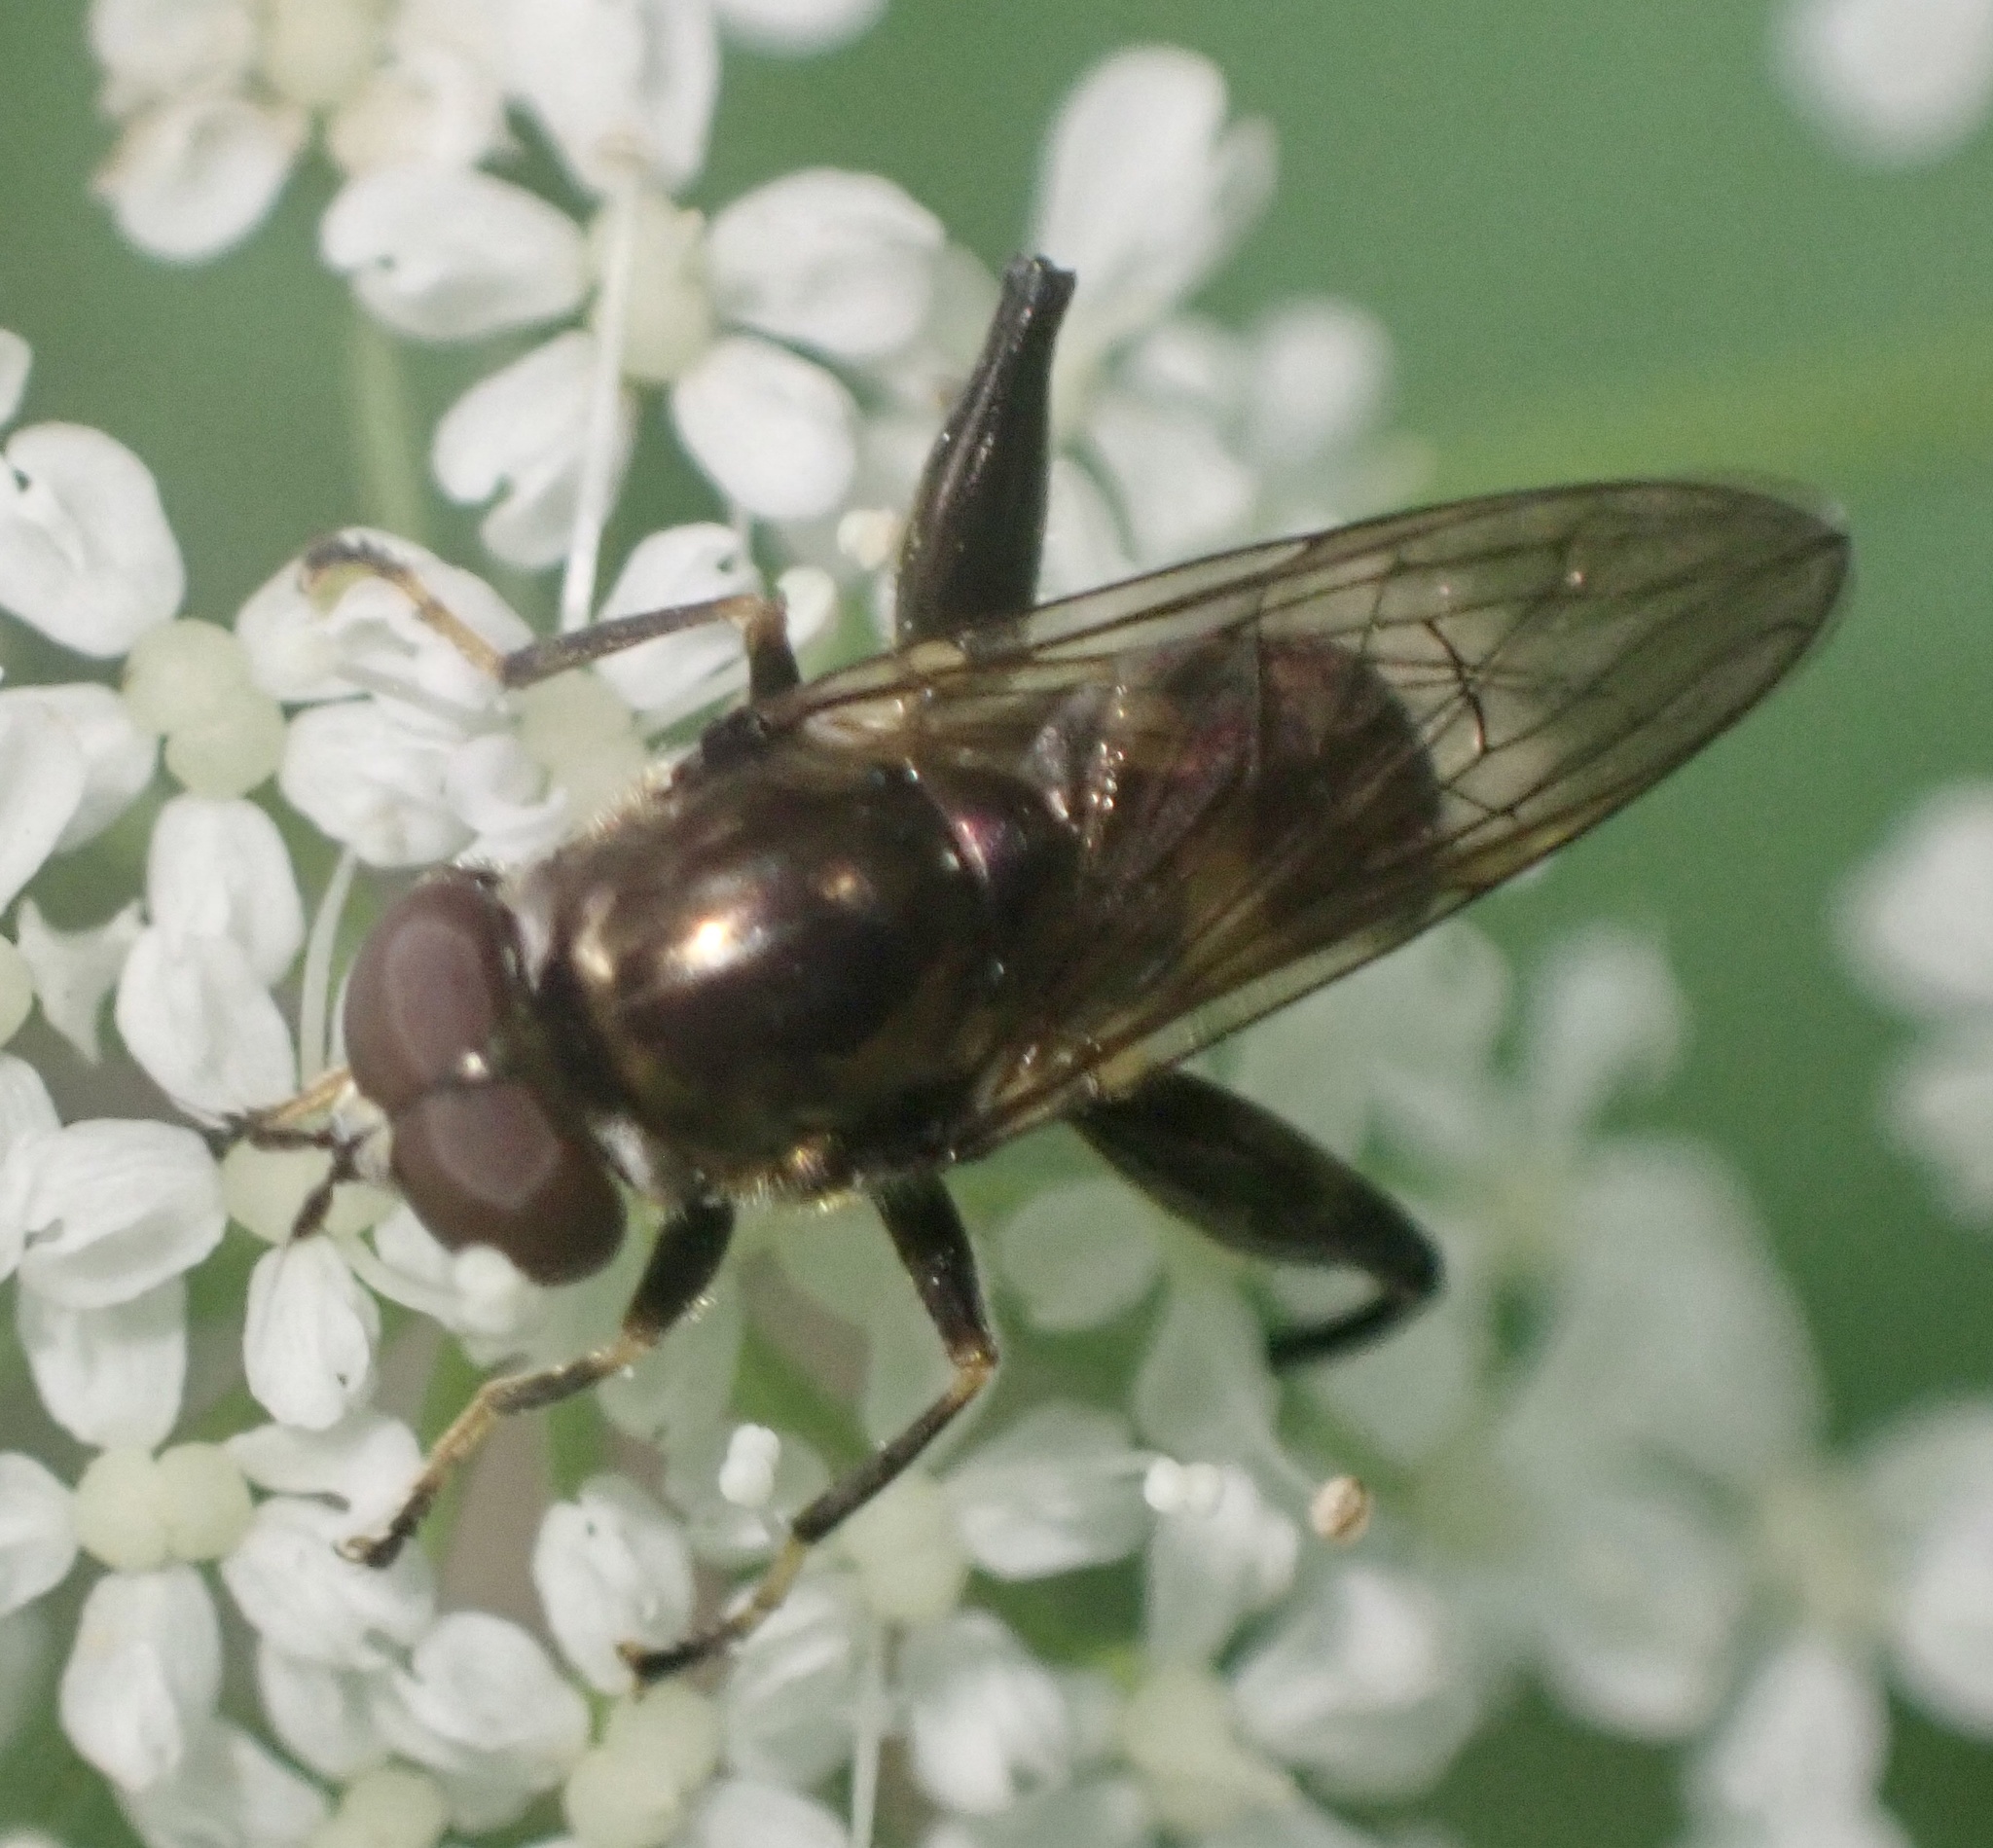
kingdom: Animalia
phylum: Arthropoda
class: Insecta
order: Diptera
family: Syrphidae
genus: Chalcosyrphus
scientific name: Chalcosyrphus nemorum
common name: Dusky-banded forest fly
